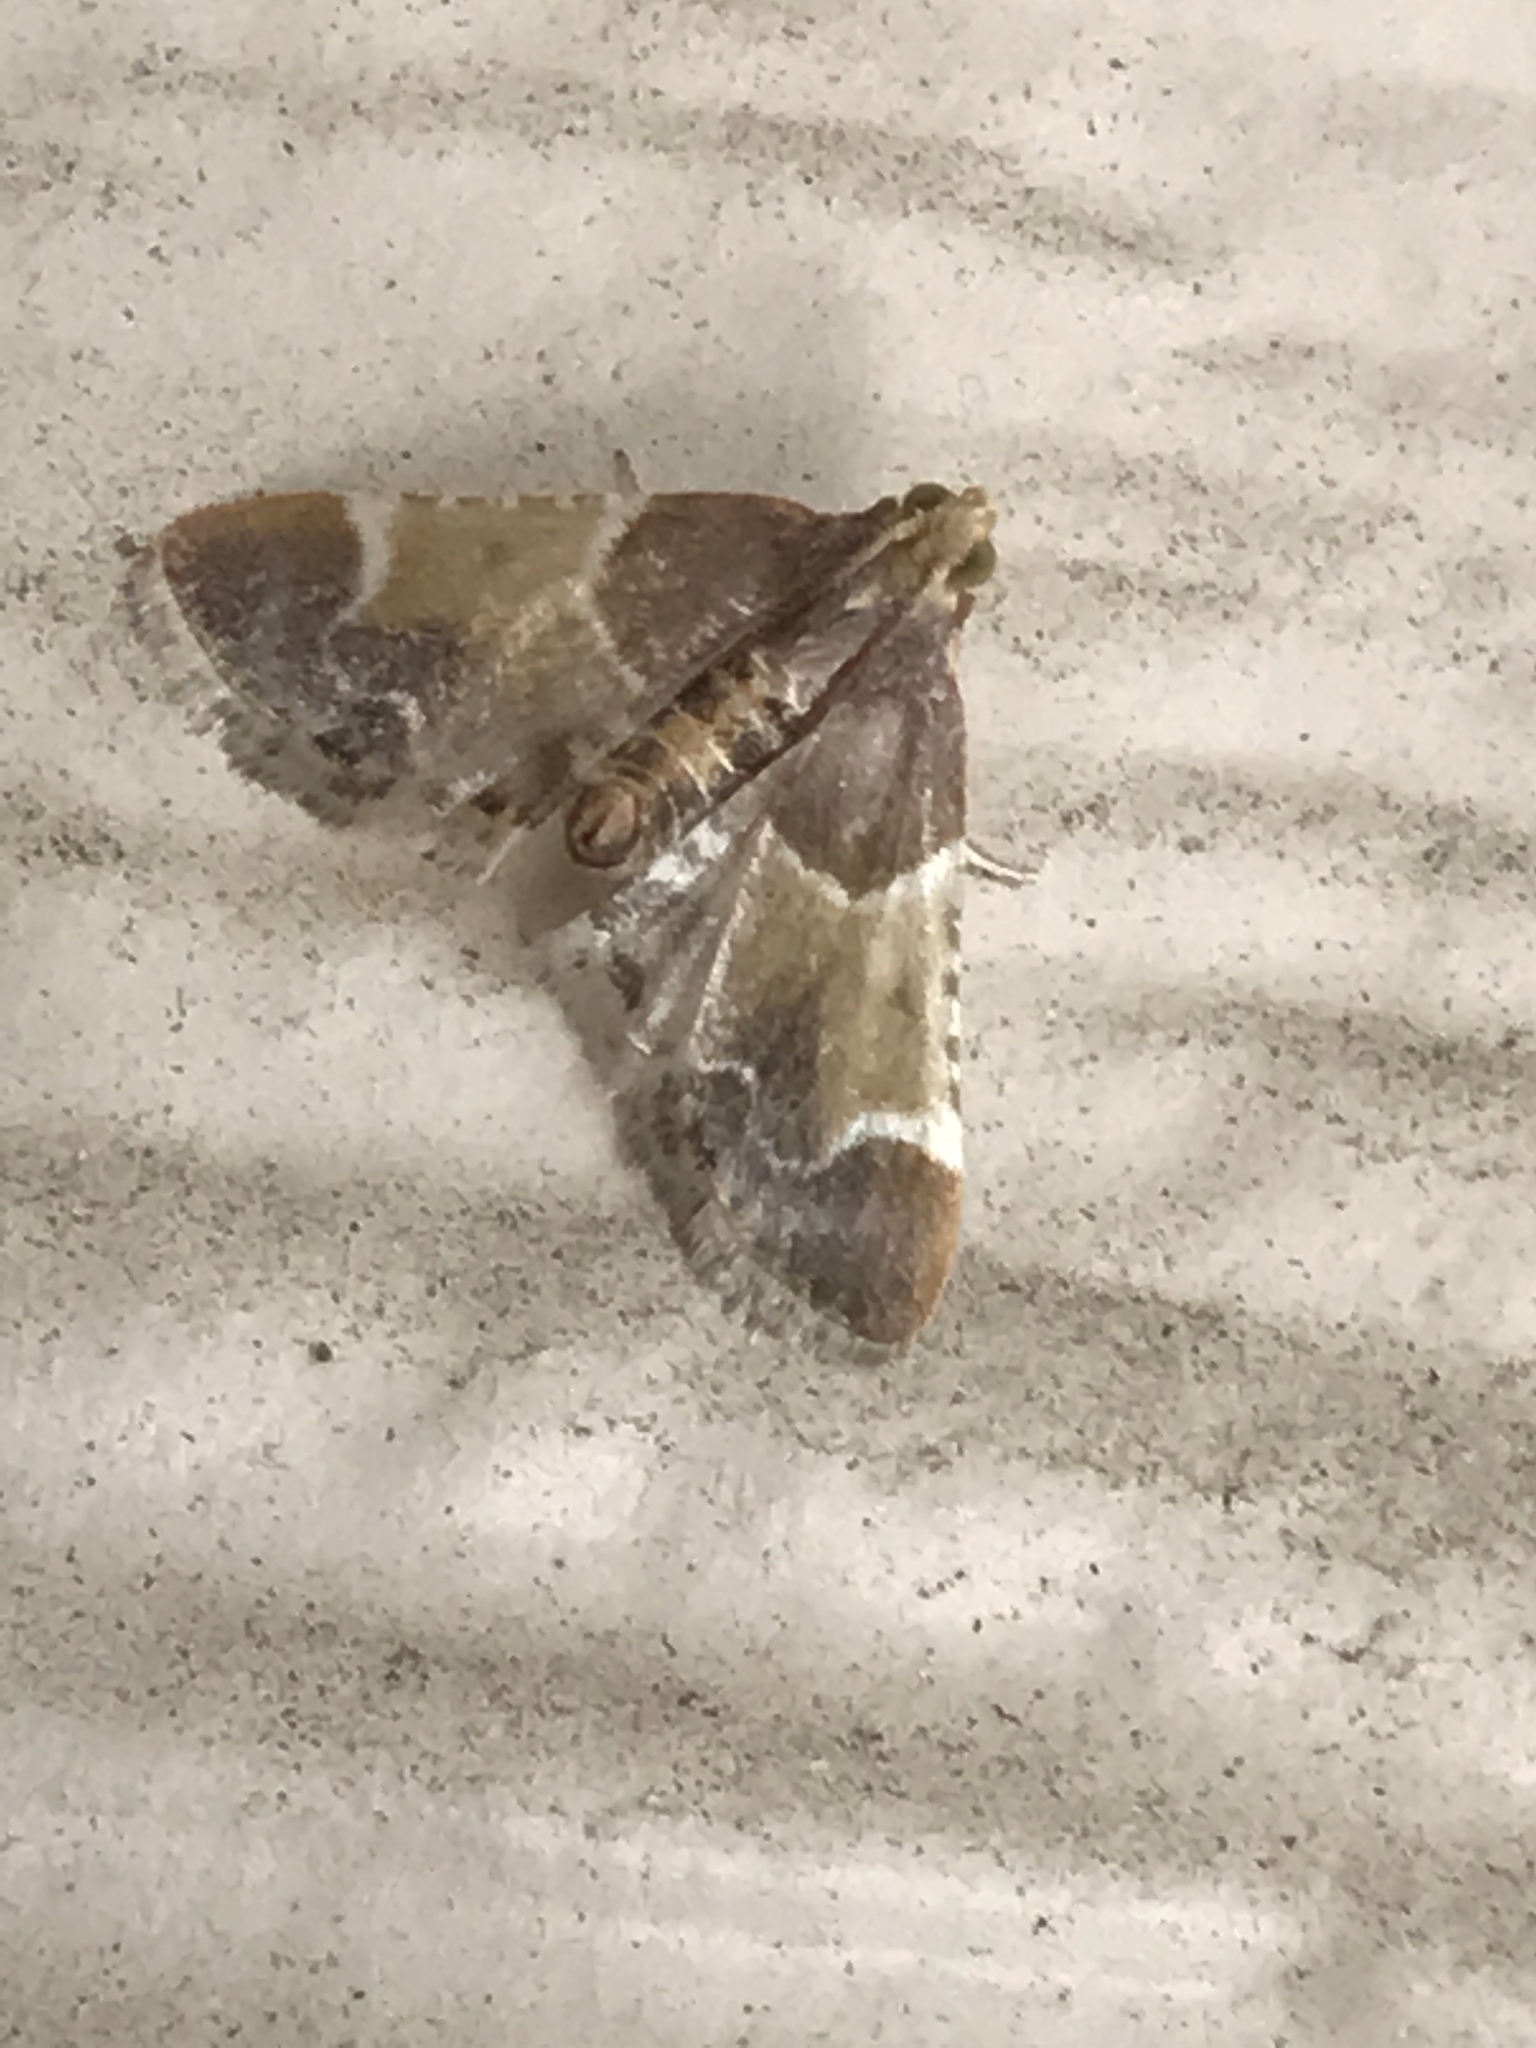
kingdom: Animalia
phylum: Arthropoda
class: Insecta
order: Lepidoptera
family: Pyralidae
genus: Pyralis
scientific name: Pyralis farinalis
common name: Meal moth
